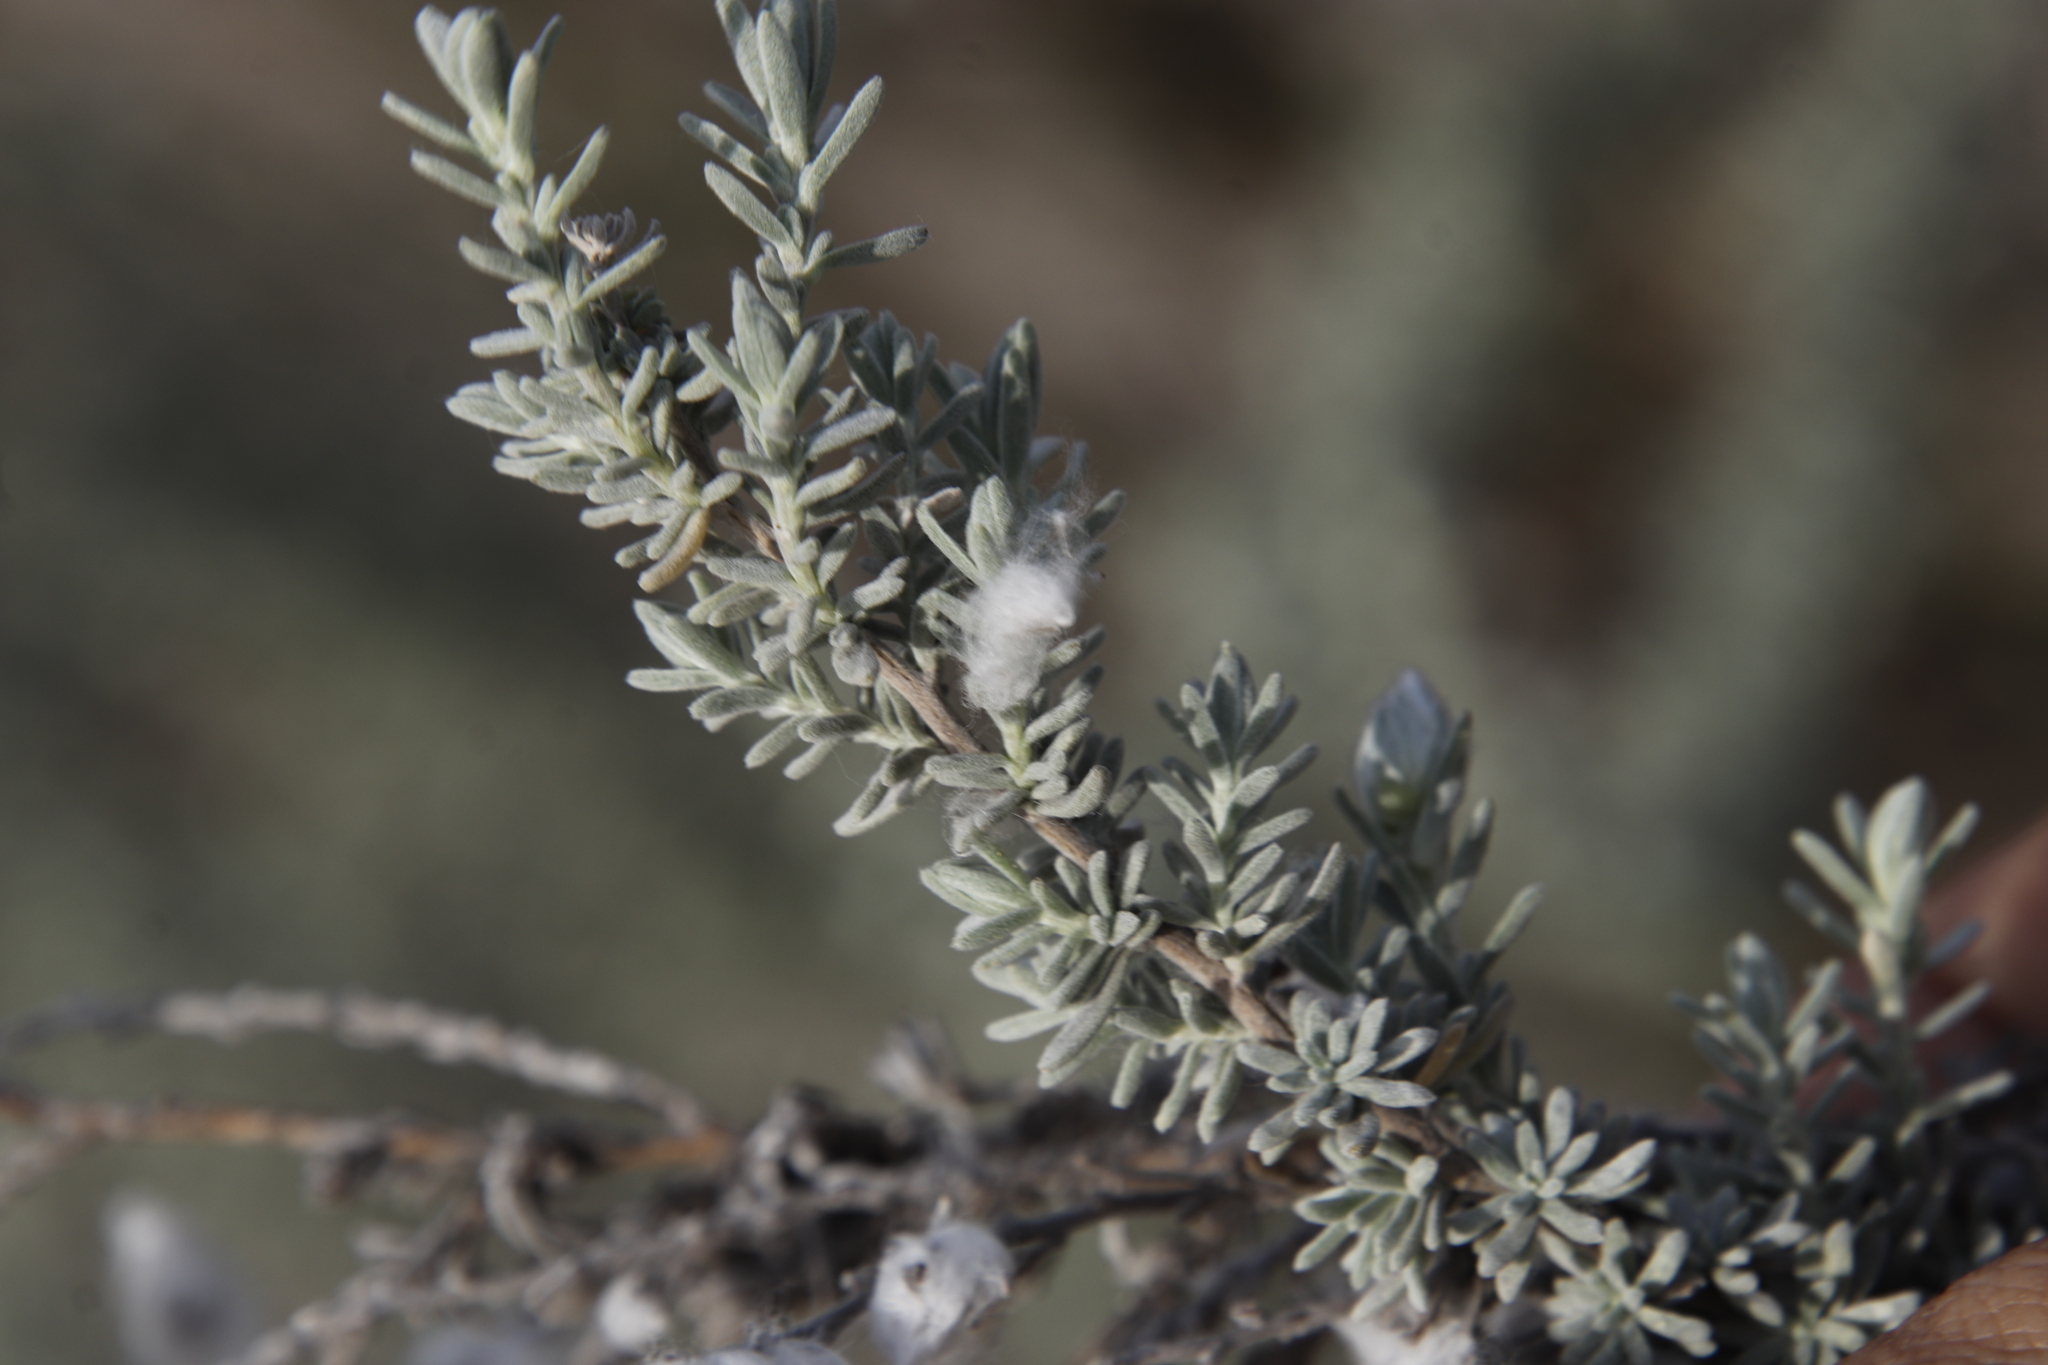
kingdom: Plantae
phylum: Tracheophyta
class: Magnoliopsida
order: Asterales
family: Asteraceae
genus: Eriocephalus
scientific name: Eriocephalus racemosus
